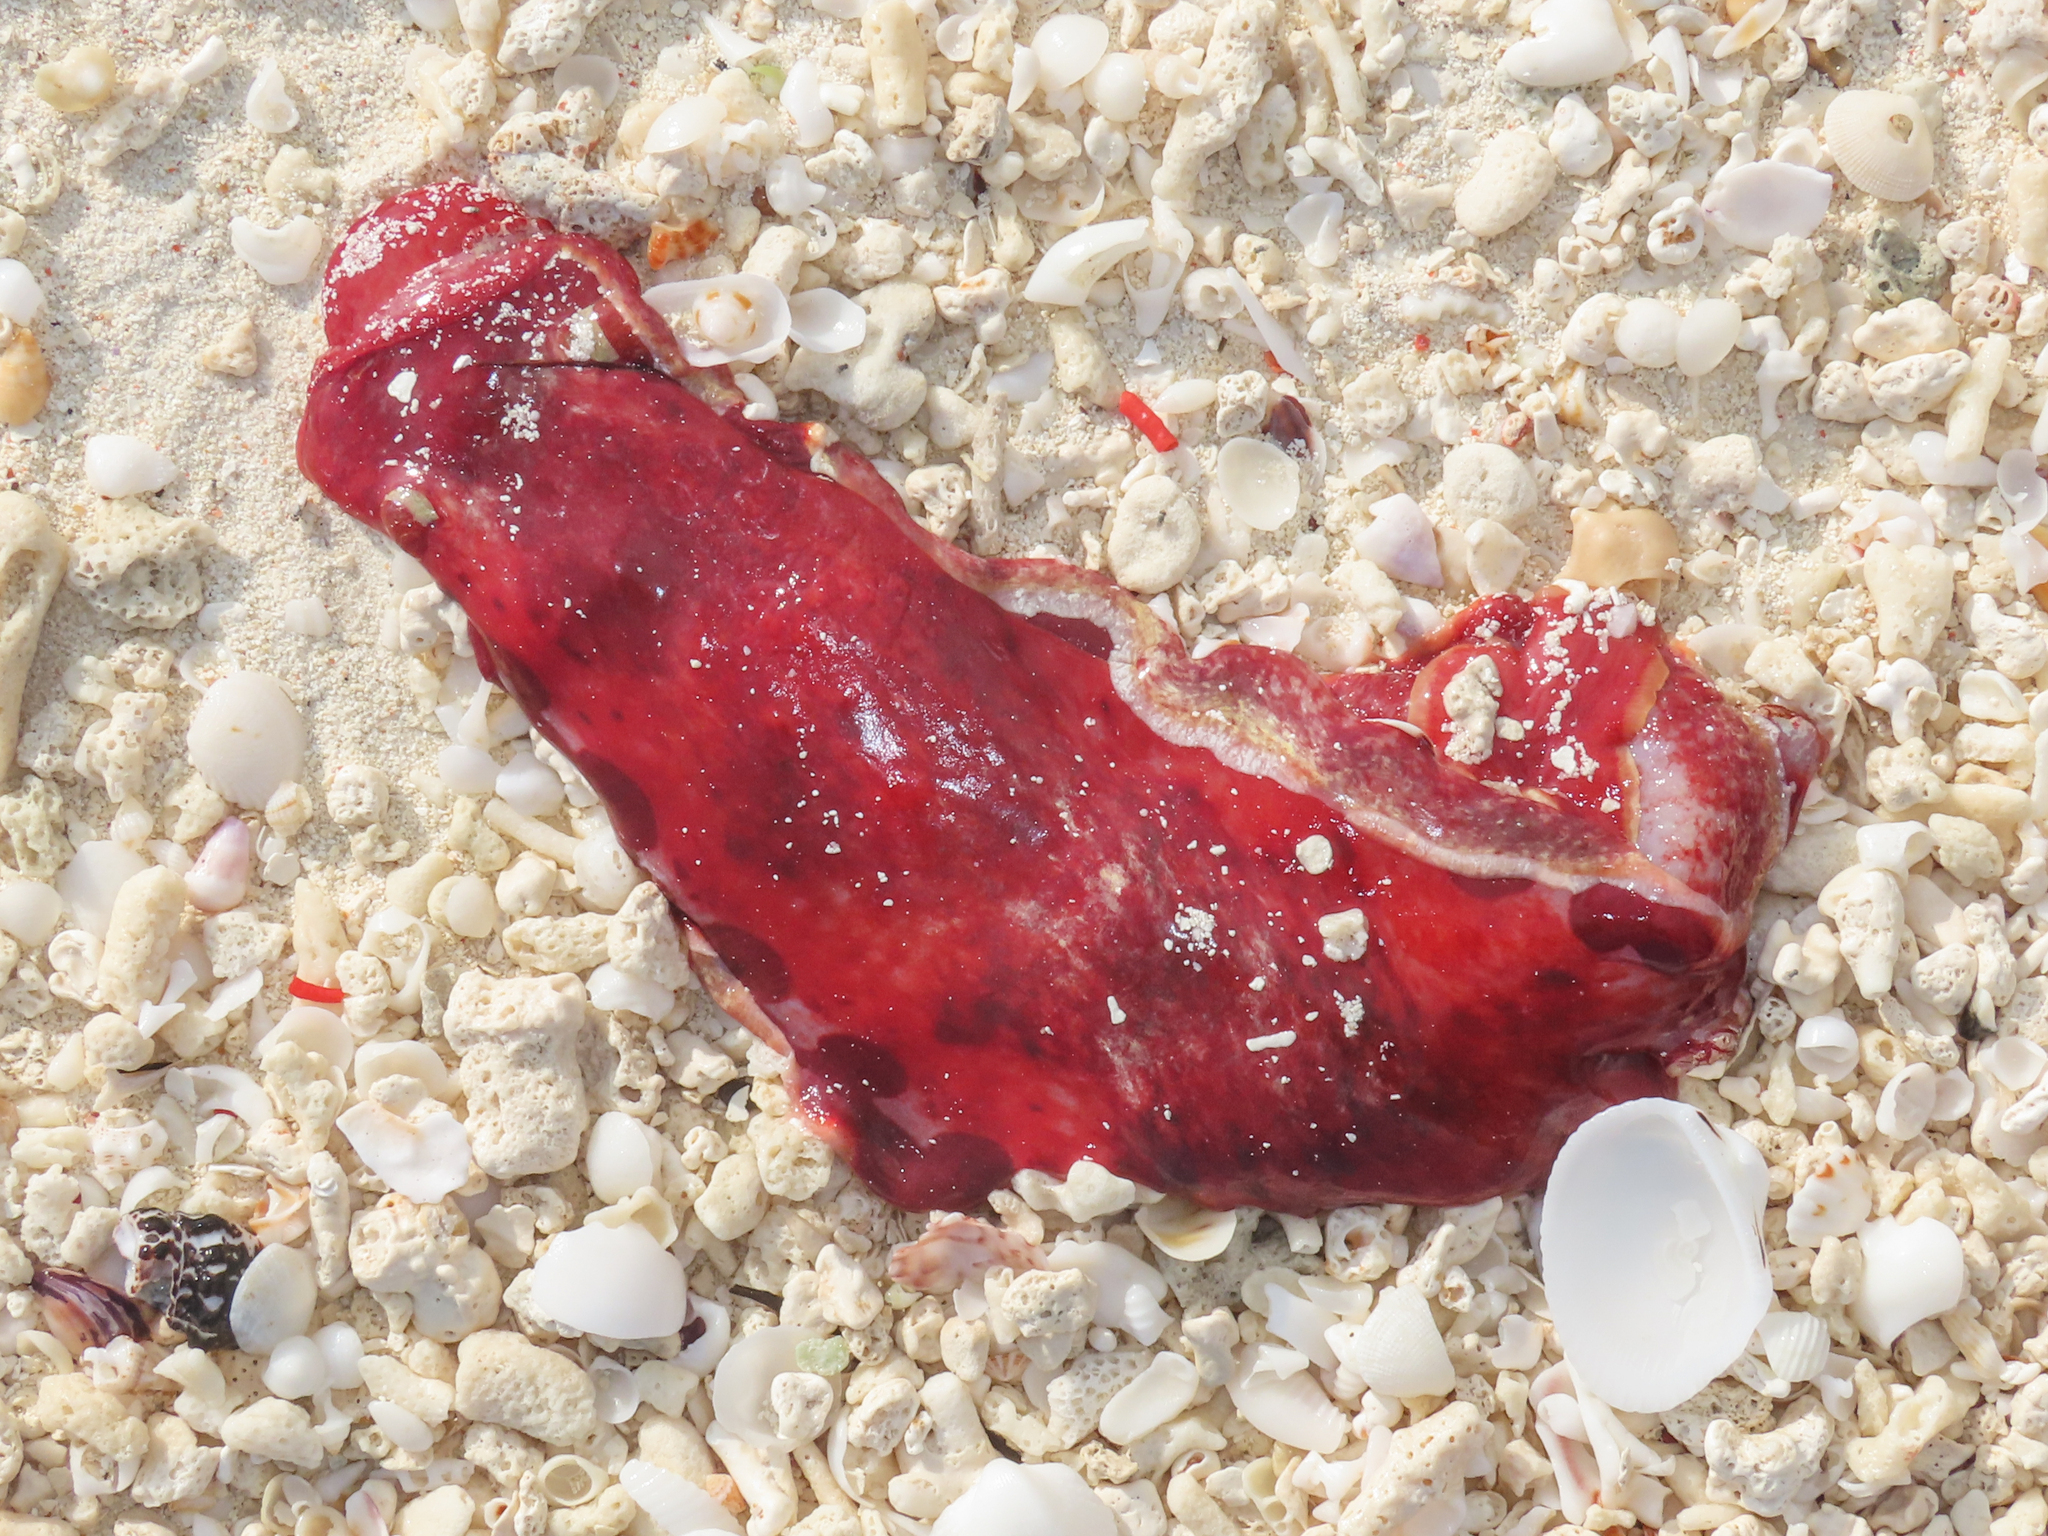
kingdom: Animalia
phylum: Mollusca
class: Gastropoda
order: Nudibranchia
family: Hexabranchidae
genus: Hexabranchus
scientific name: Hexabranchus lacer
